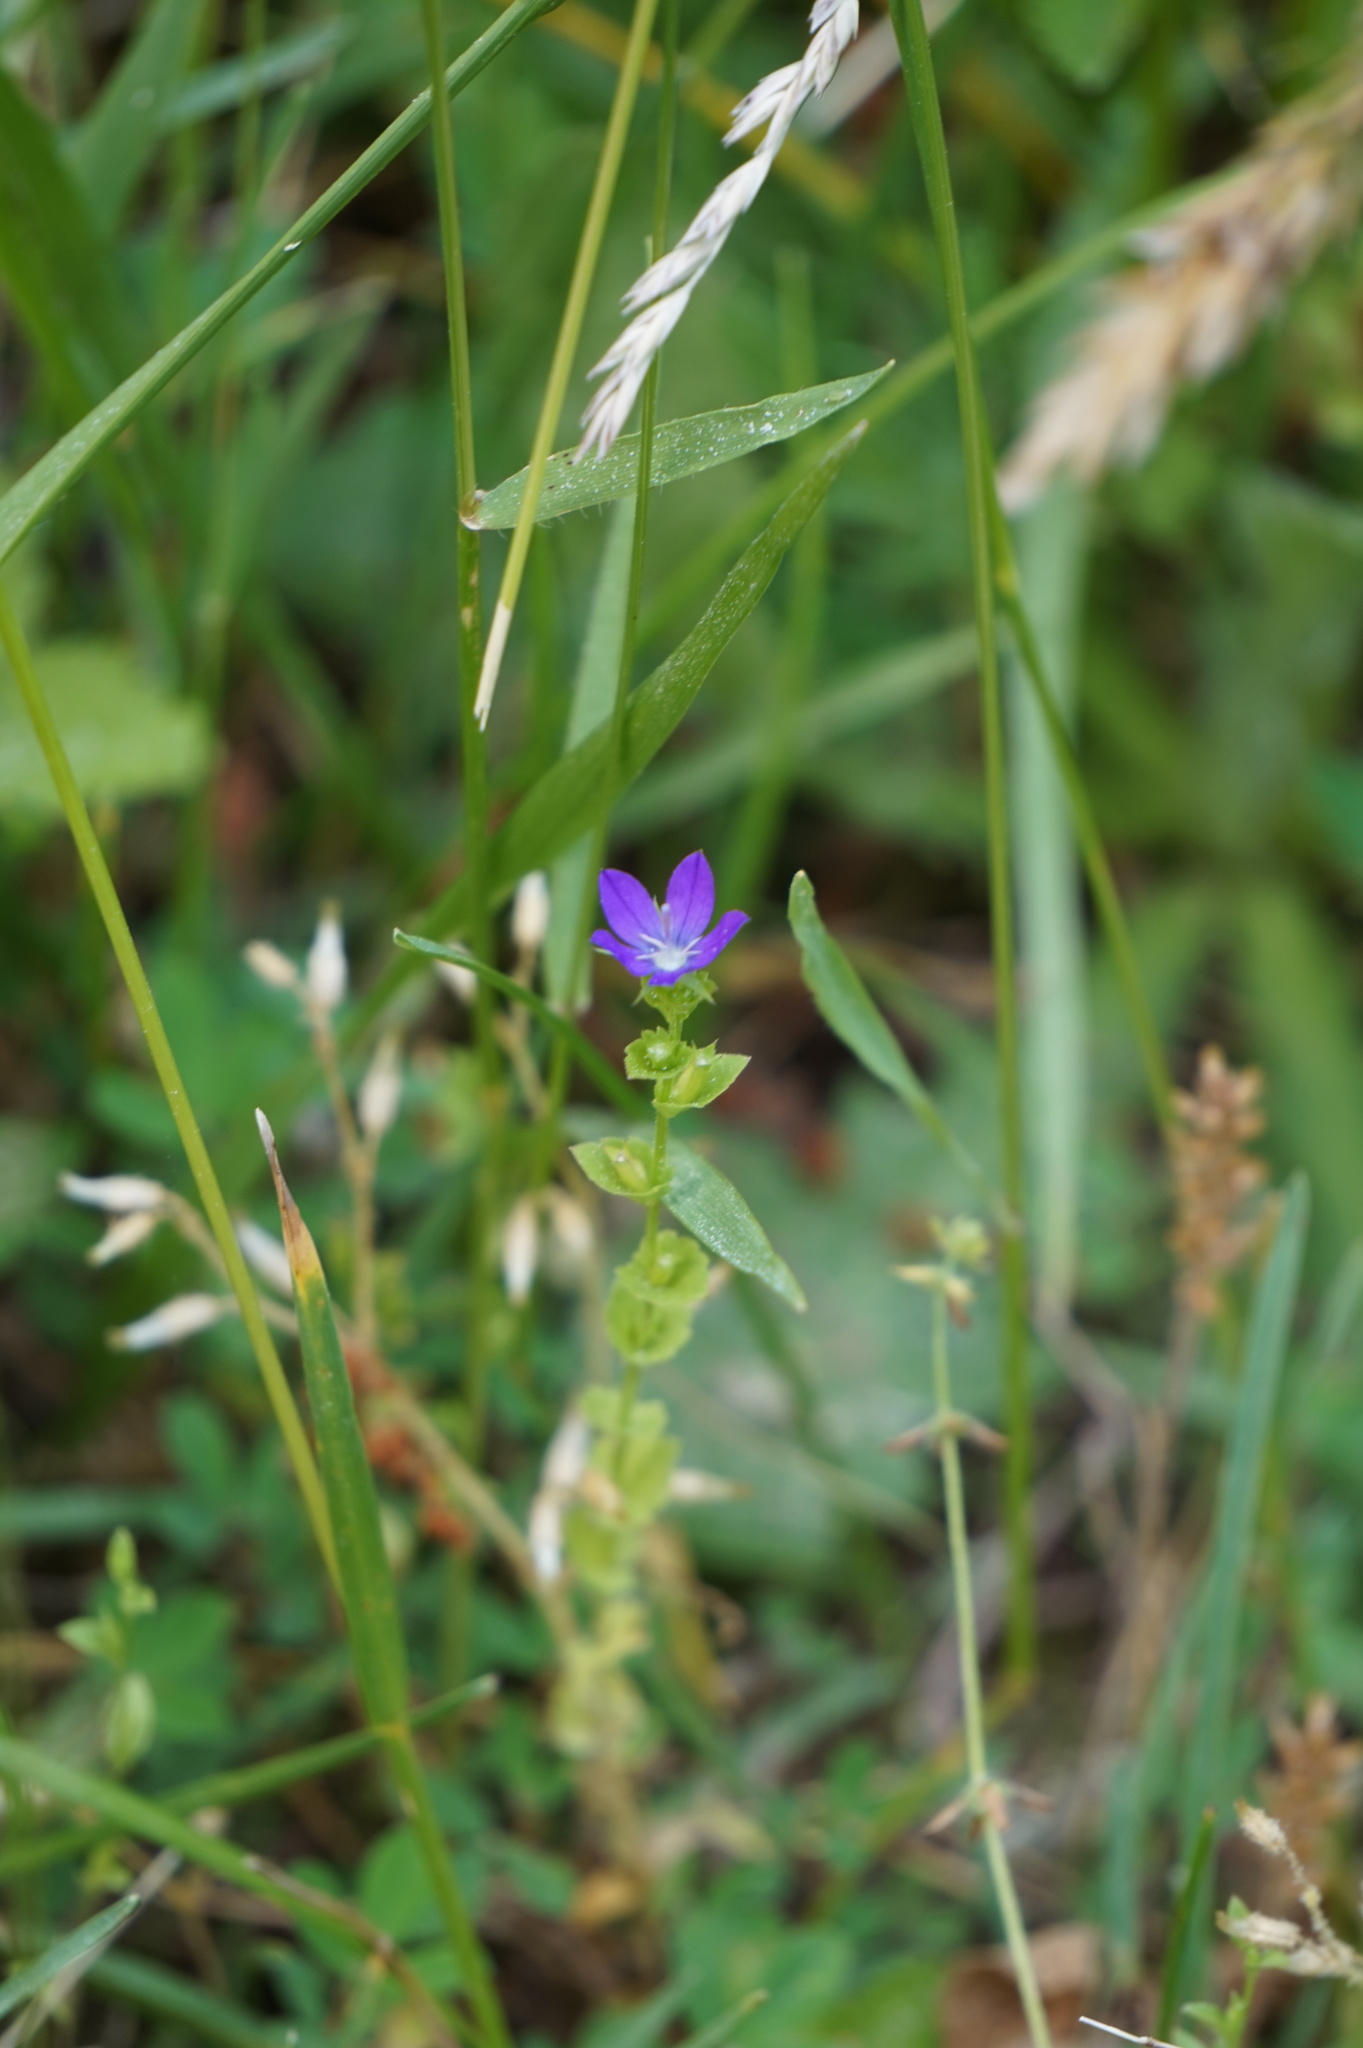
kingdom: Plantae
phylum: Tracheophyta
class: Magnoliopsida
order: Asterales
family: Campanulaceae
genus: Triodanis
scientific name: Triodanis perfoliata
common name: Clasping venus' looking-glass
